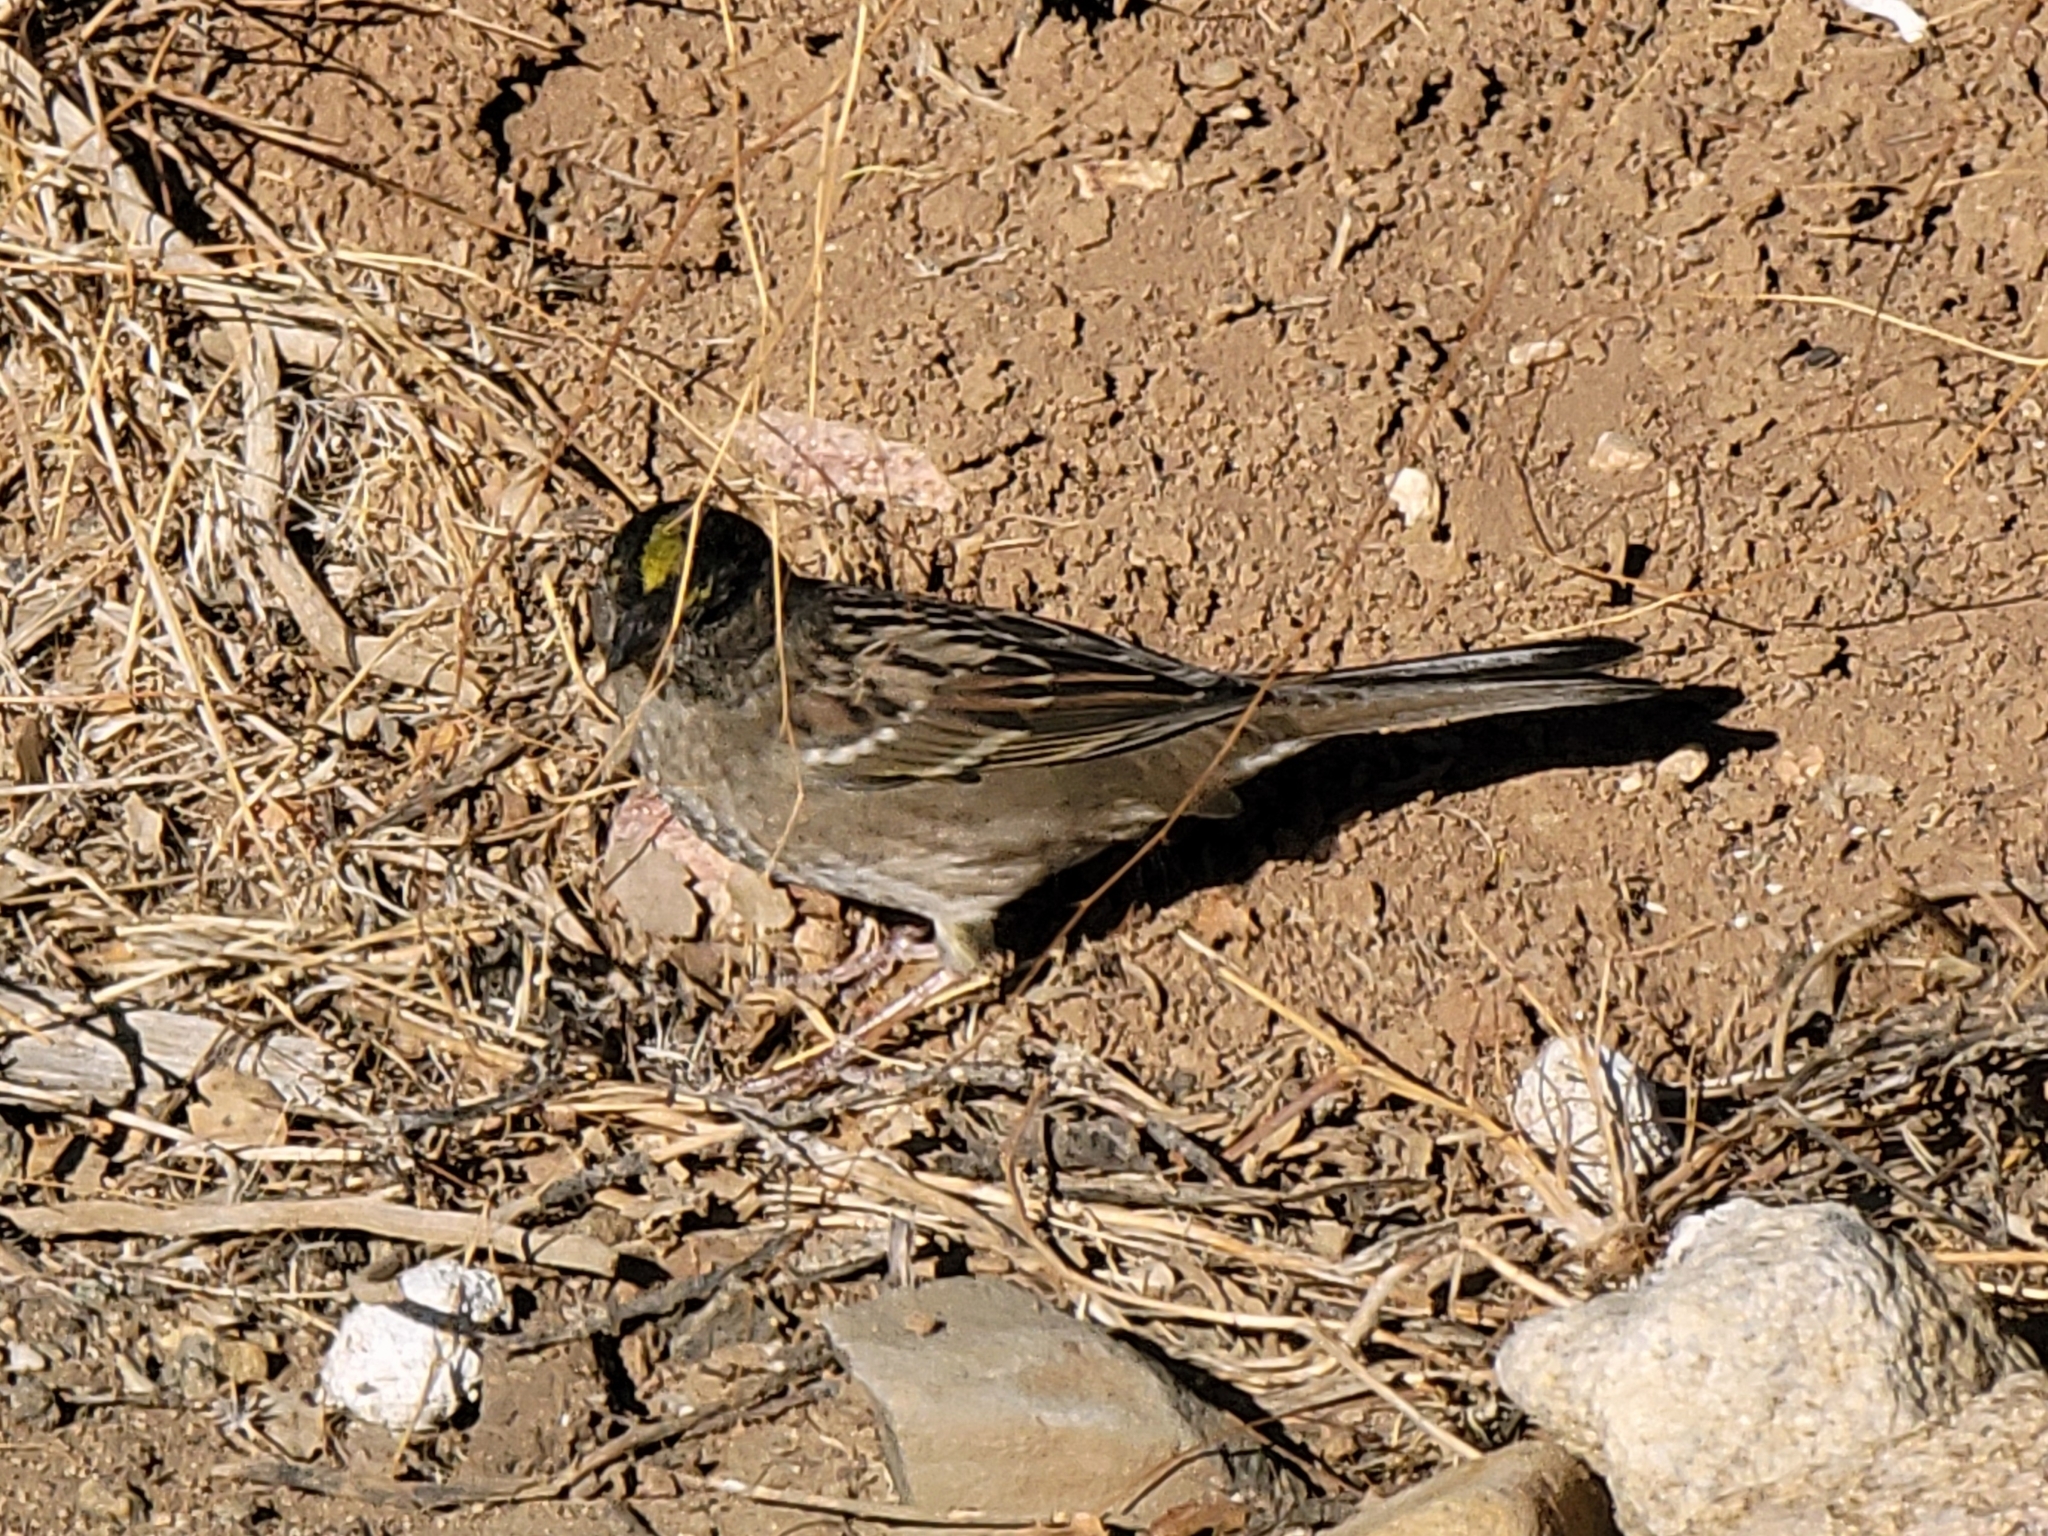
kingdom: Animalia
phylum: Chordata
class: Aves
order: Passeriformes
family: Passerellidae
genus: Zonotrichia
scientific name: Zonotrichia atricapilla
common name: Golden-crowned sparrow
